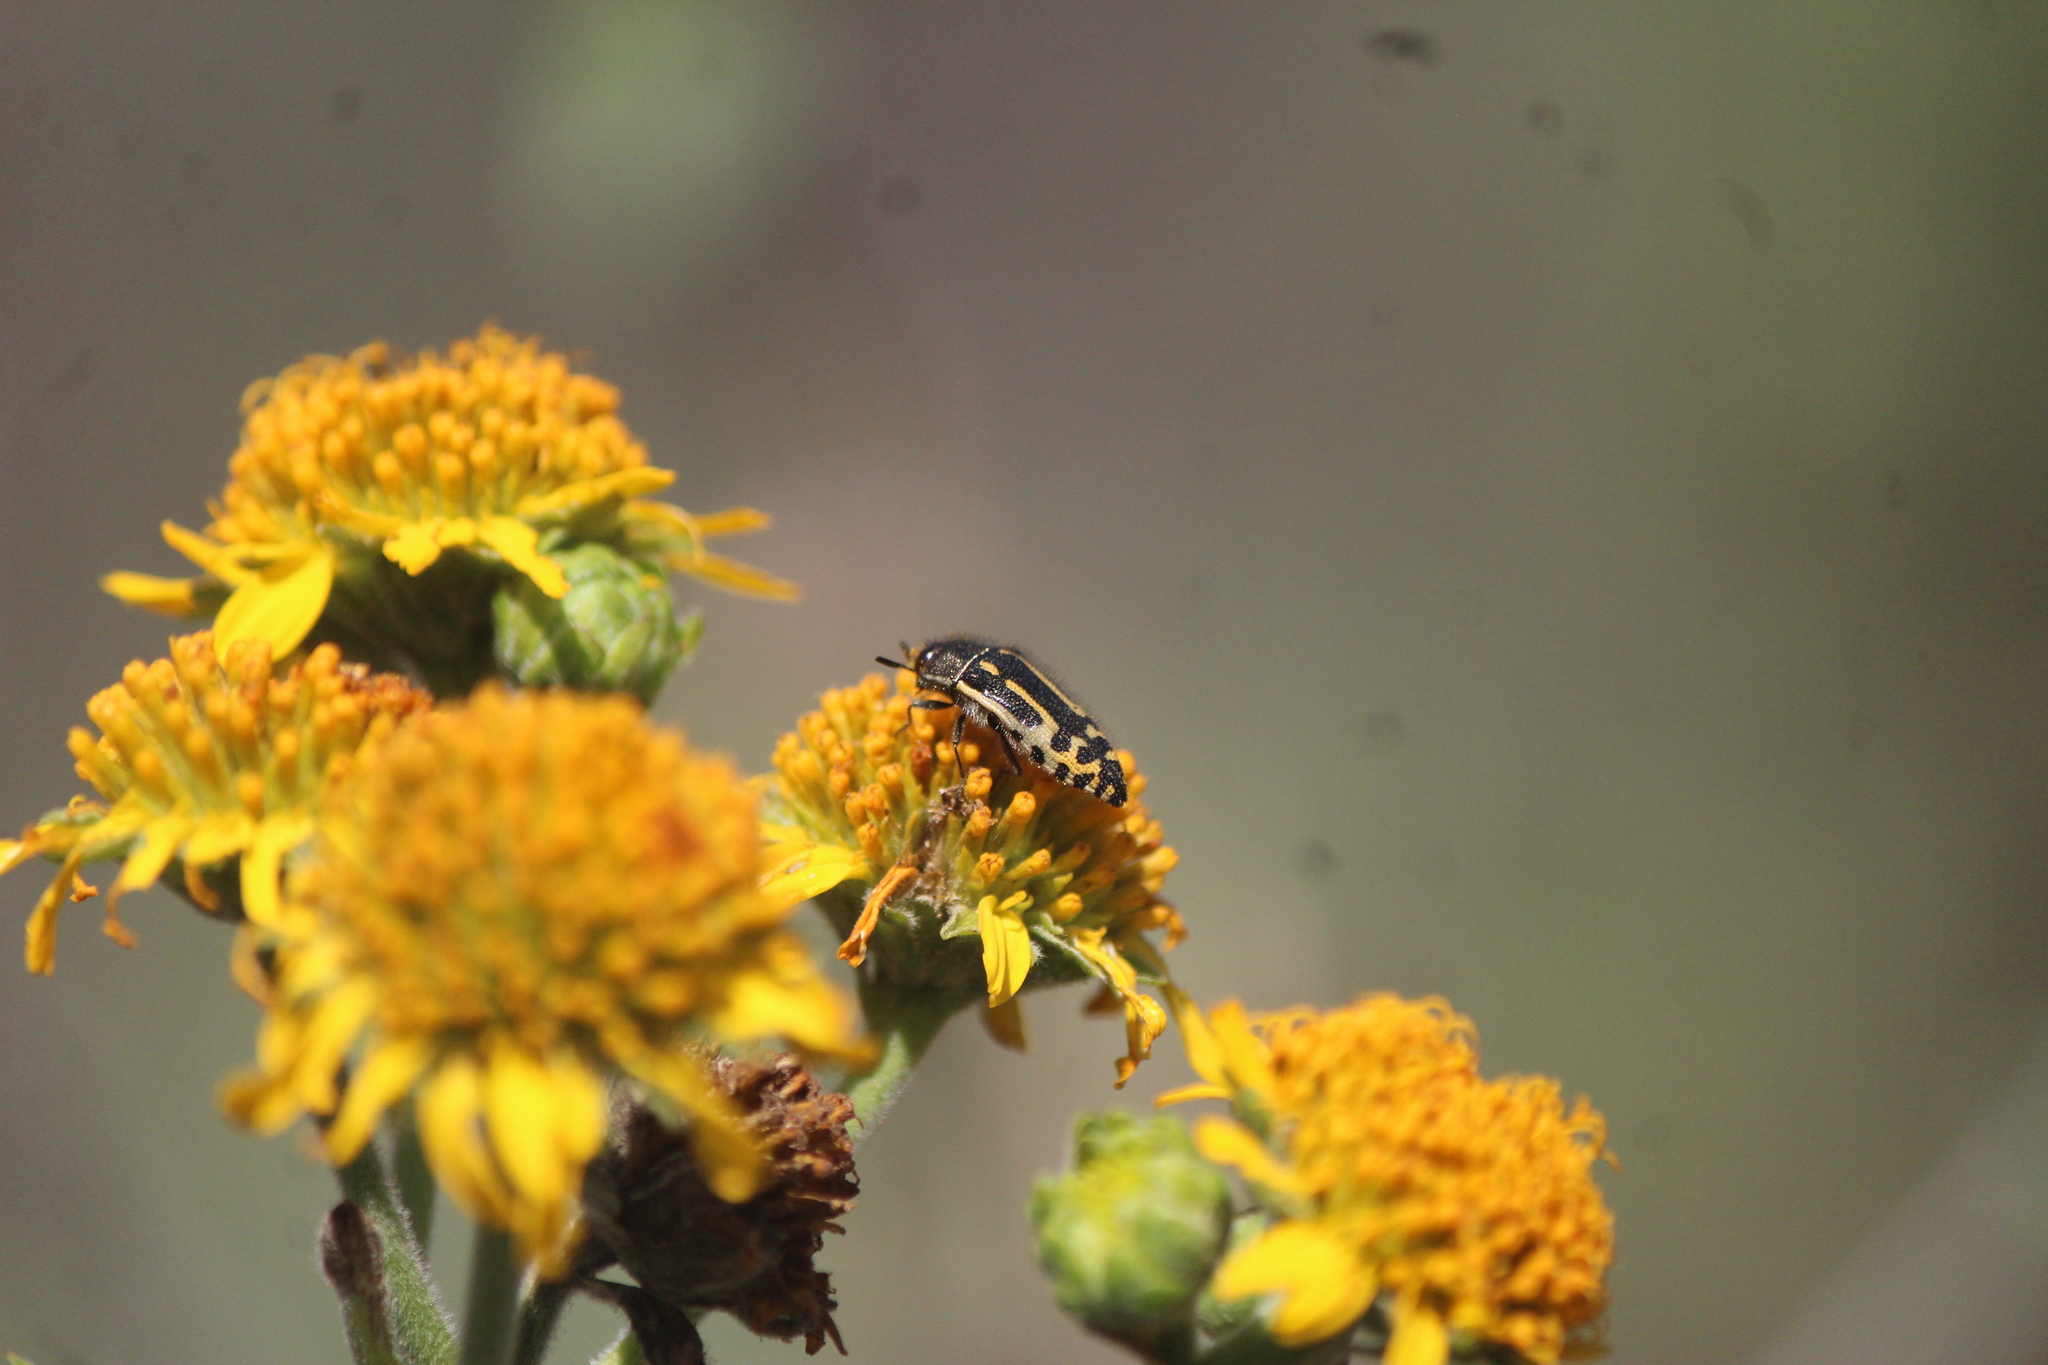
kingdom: Animalia
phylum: Arthropoda
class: Insecta
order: Coleoptera
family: Buprestidae
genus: Acmaeodera
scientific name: Acmaeodera scalaris
